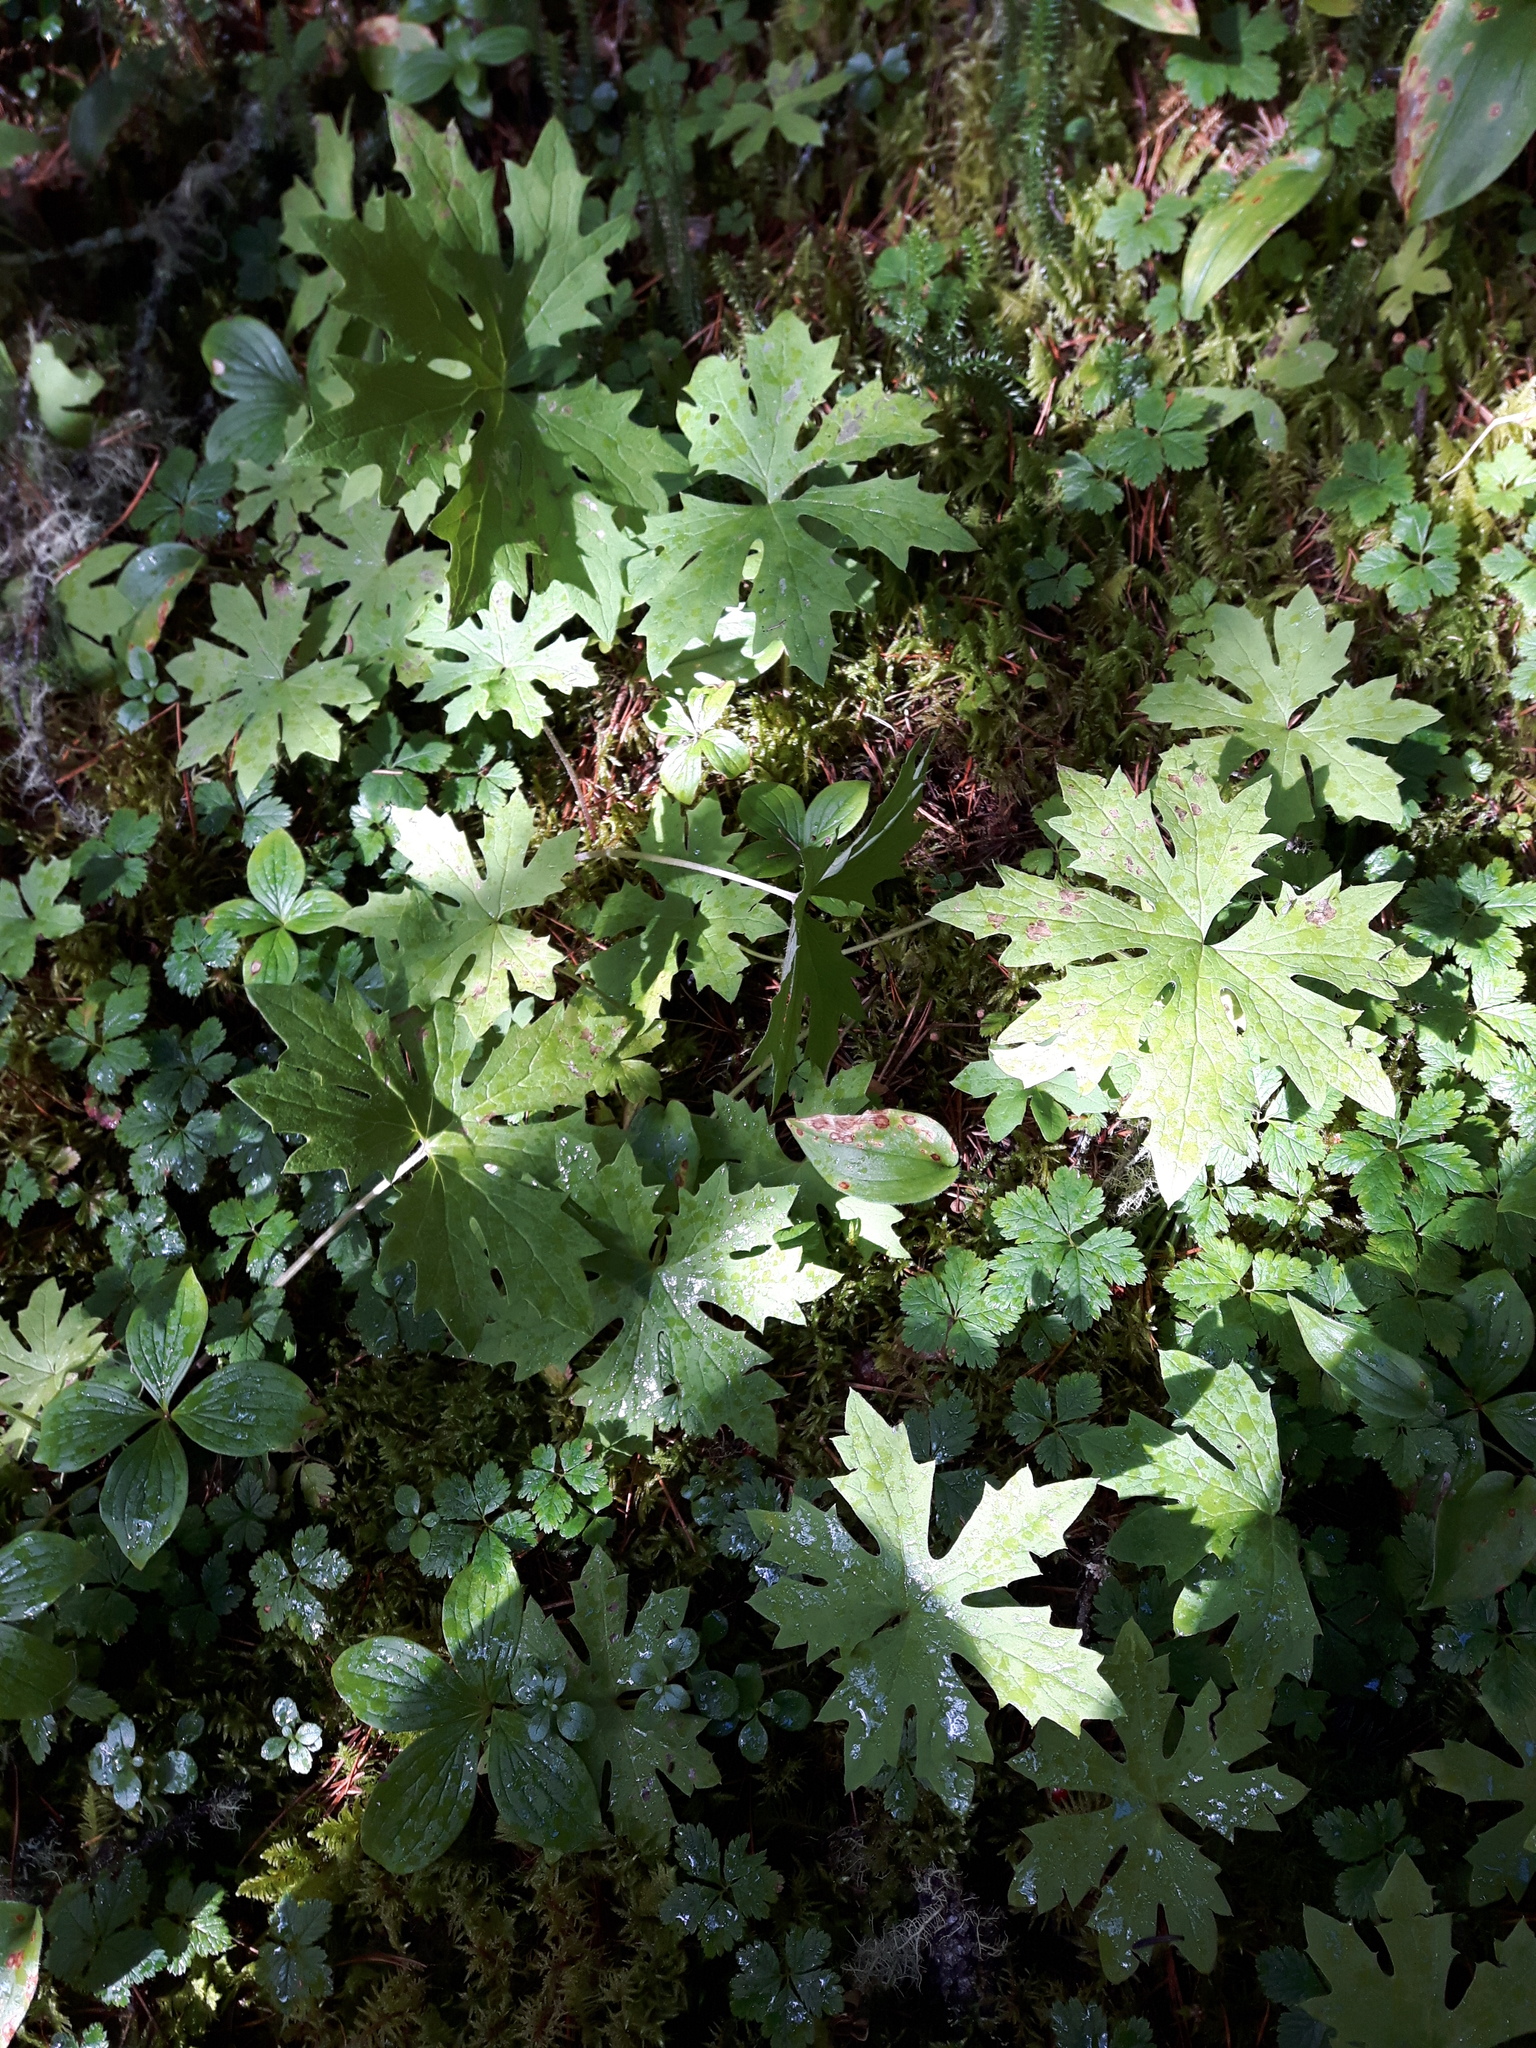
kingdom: Plantae
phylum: Tracheophyta
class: Magnoliopsida
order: Asterales
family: Asteraceae
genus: Petasites
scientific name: Petasites frigidus
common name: Arctic butterbur
